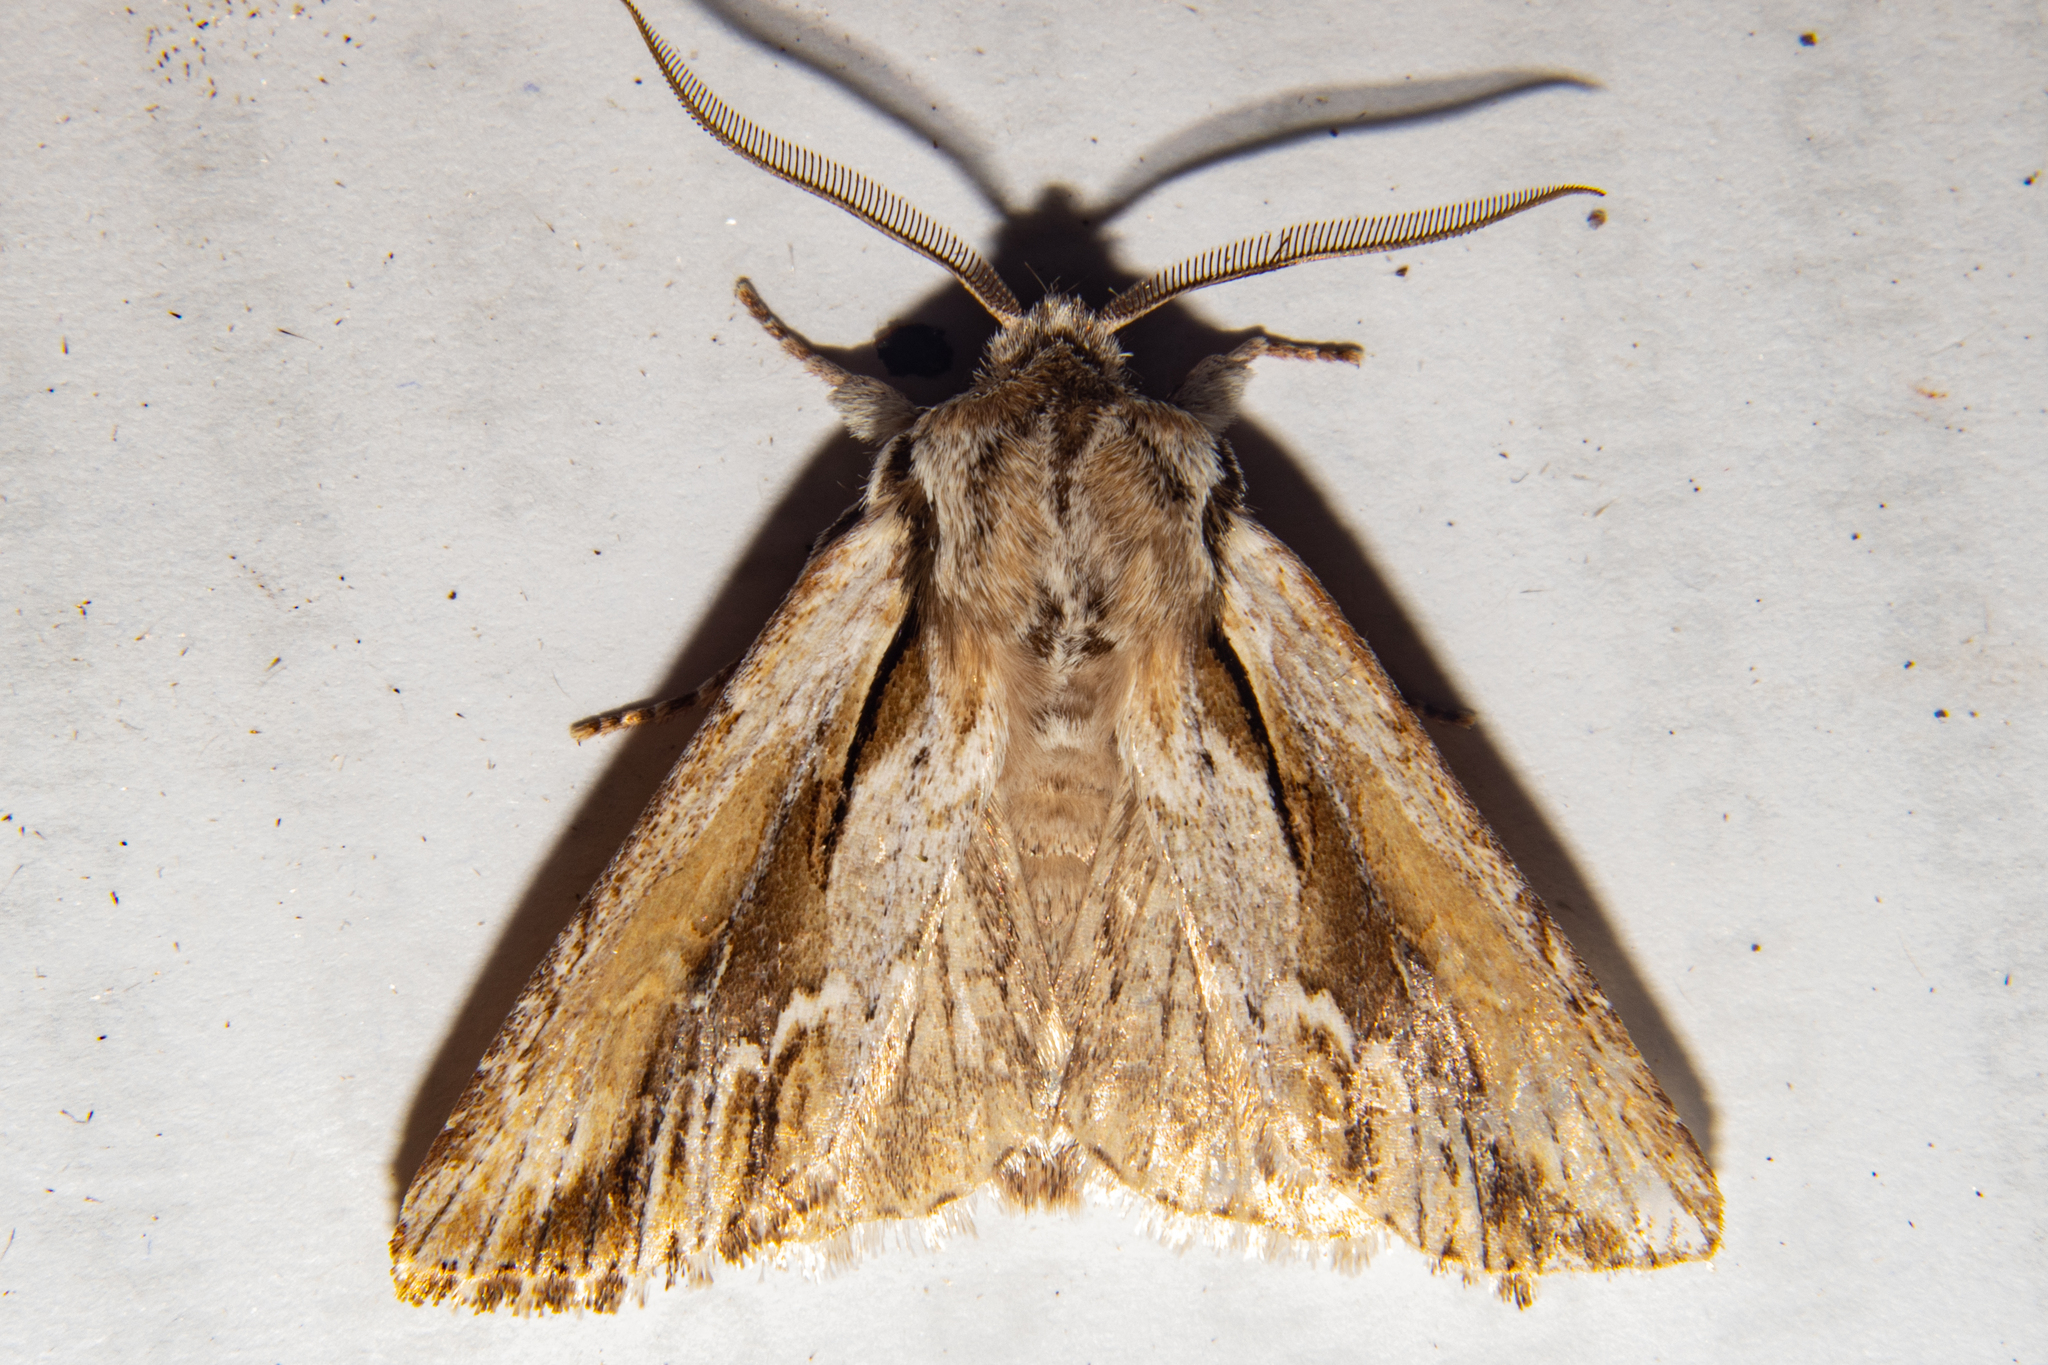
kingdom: Animalia
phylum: Arthropoda
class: Insecta
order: Lepidoptera
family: Noctuidae
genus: Ichneutica
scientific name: Ichneutica
